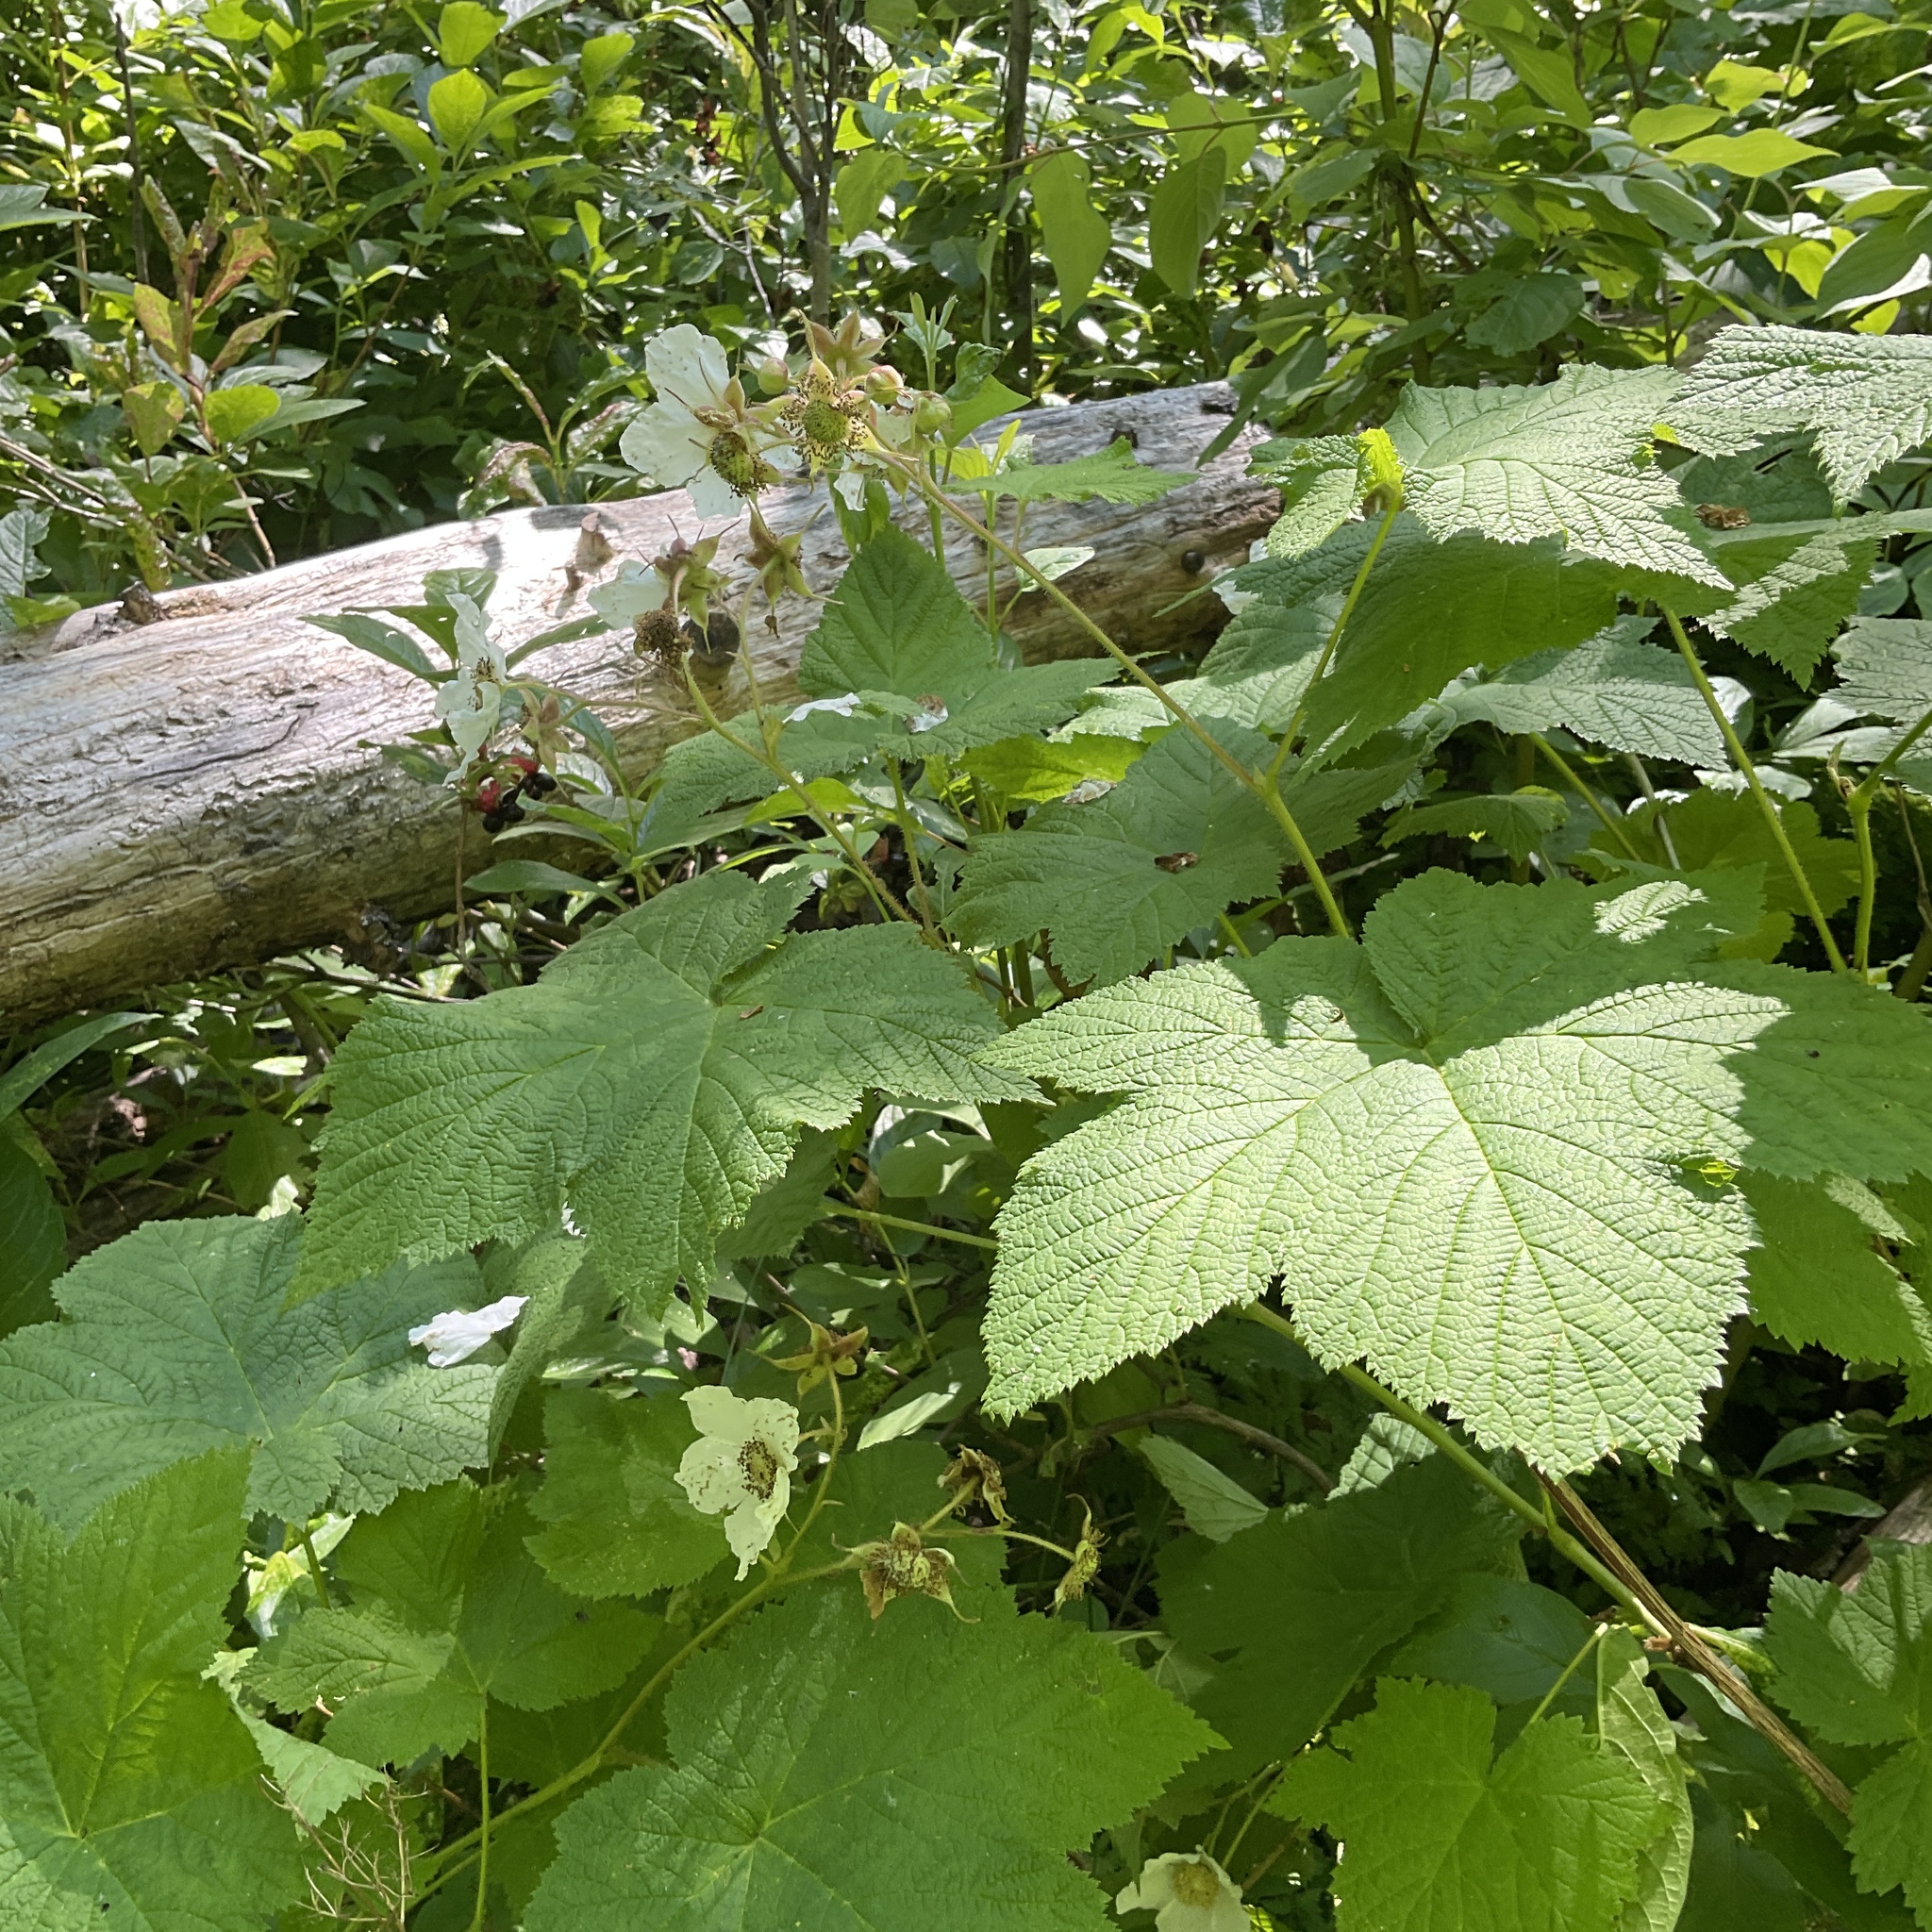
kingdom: Plantae
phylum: Tracheophyta
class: Magnoliopsida
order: Rosales
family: Rosaceae
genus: Rubus
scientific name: Rubus parviflorus
